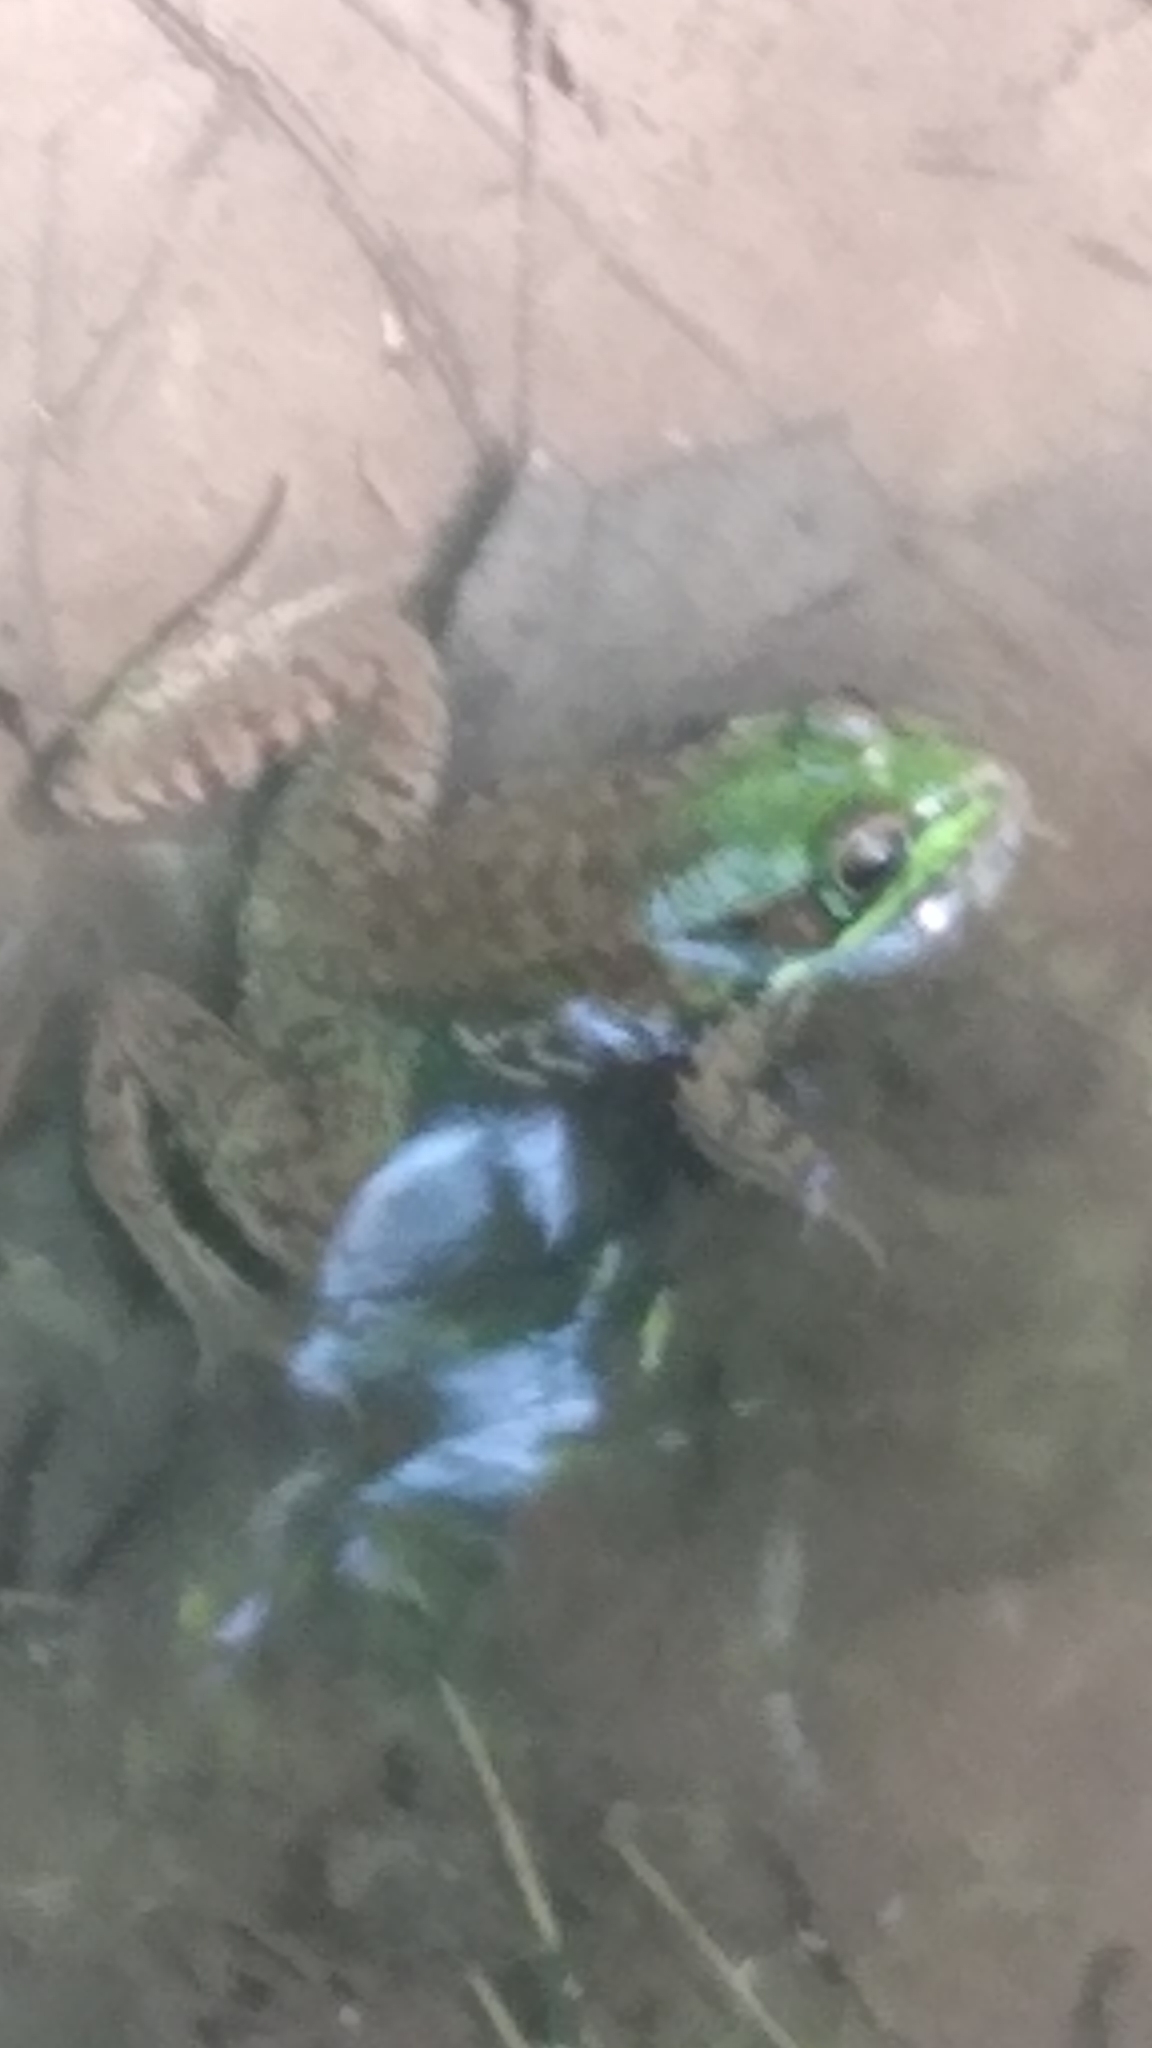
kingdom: Animalia
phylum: Chordata
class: Amphibia
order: Anura
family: Ranidae
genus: Lithobates
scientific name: Lithobates clamitans
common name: Green frog
